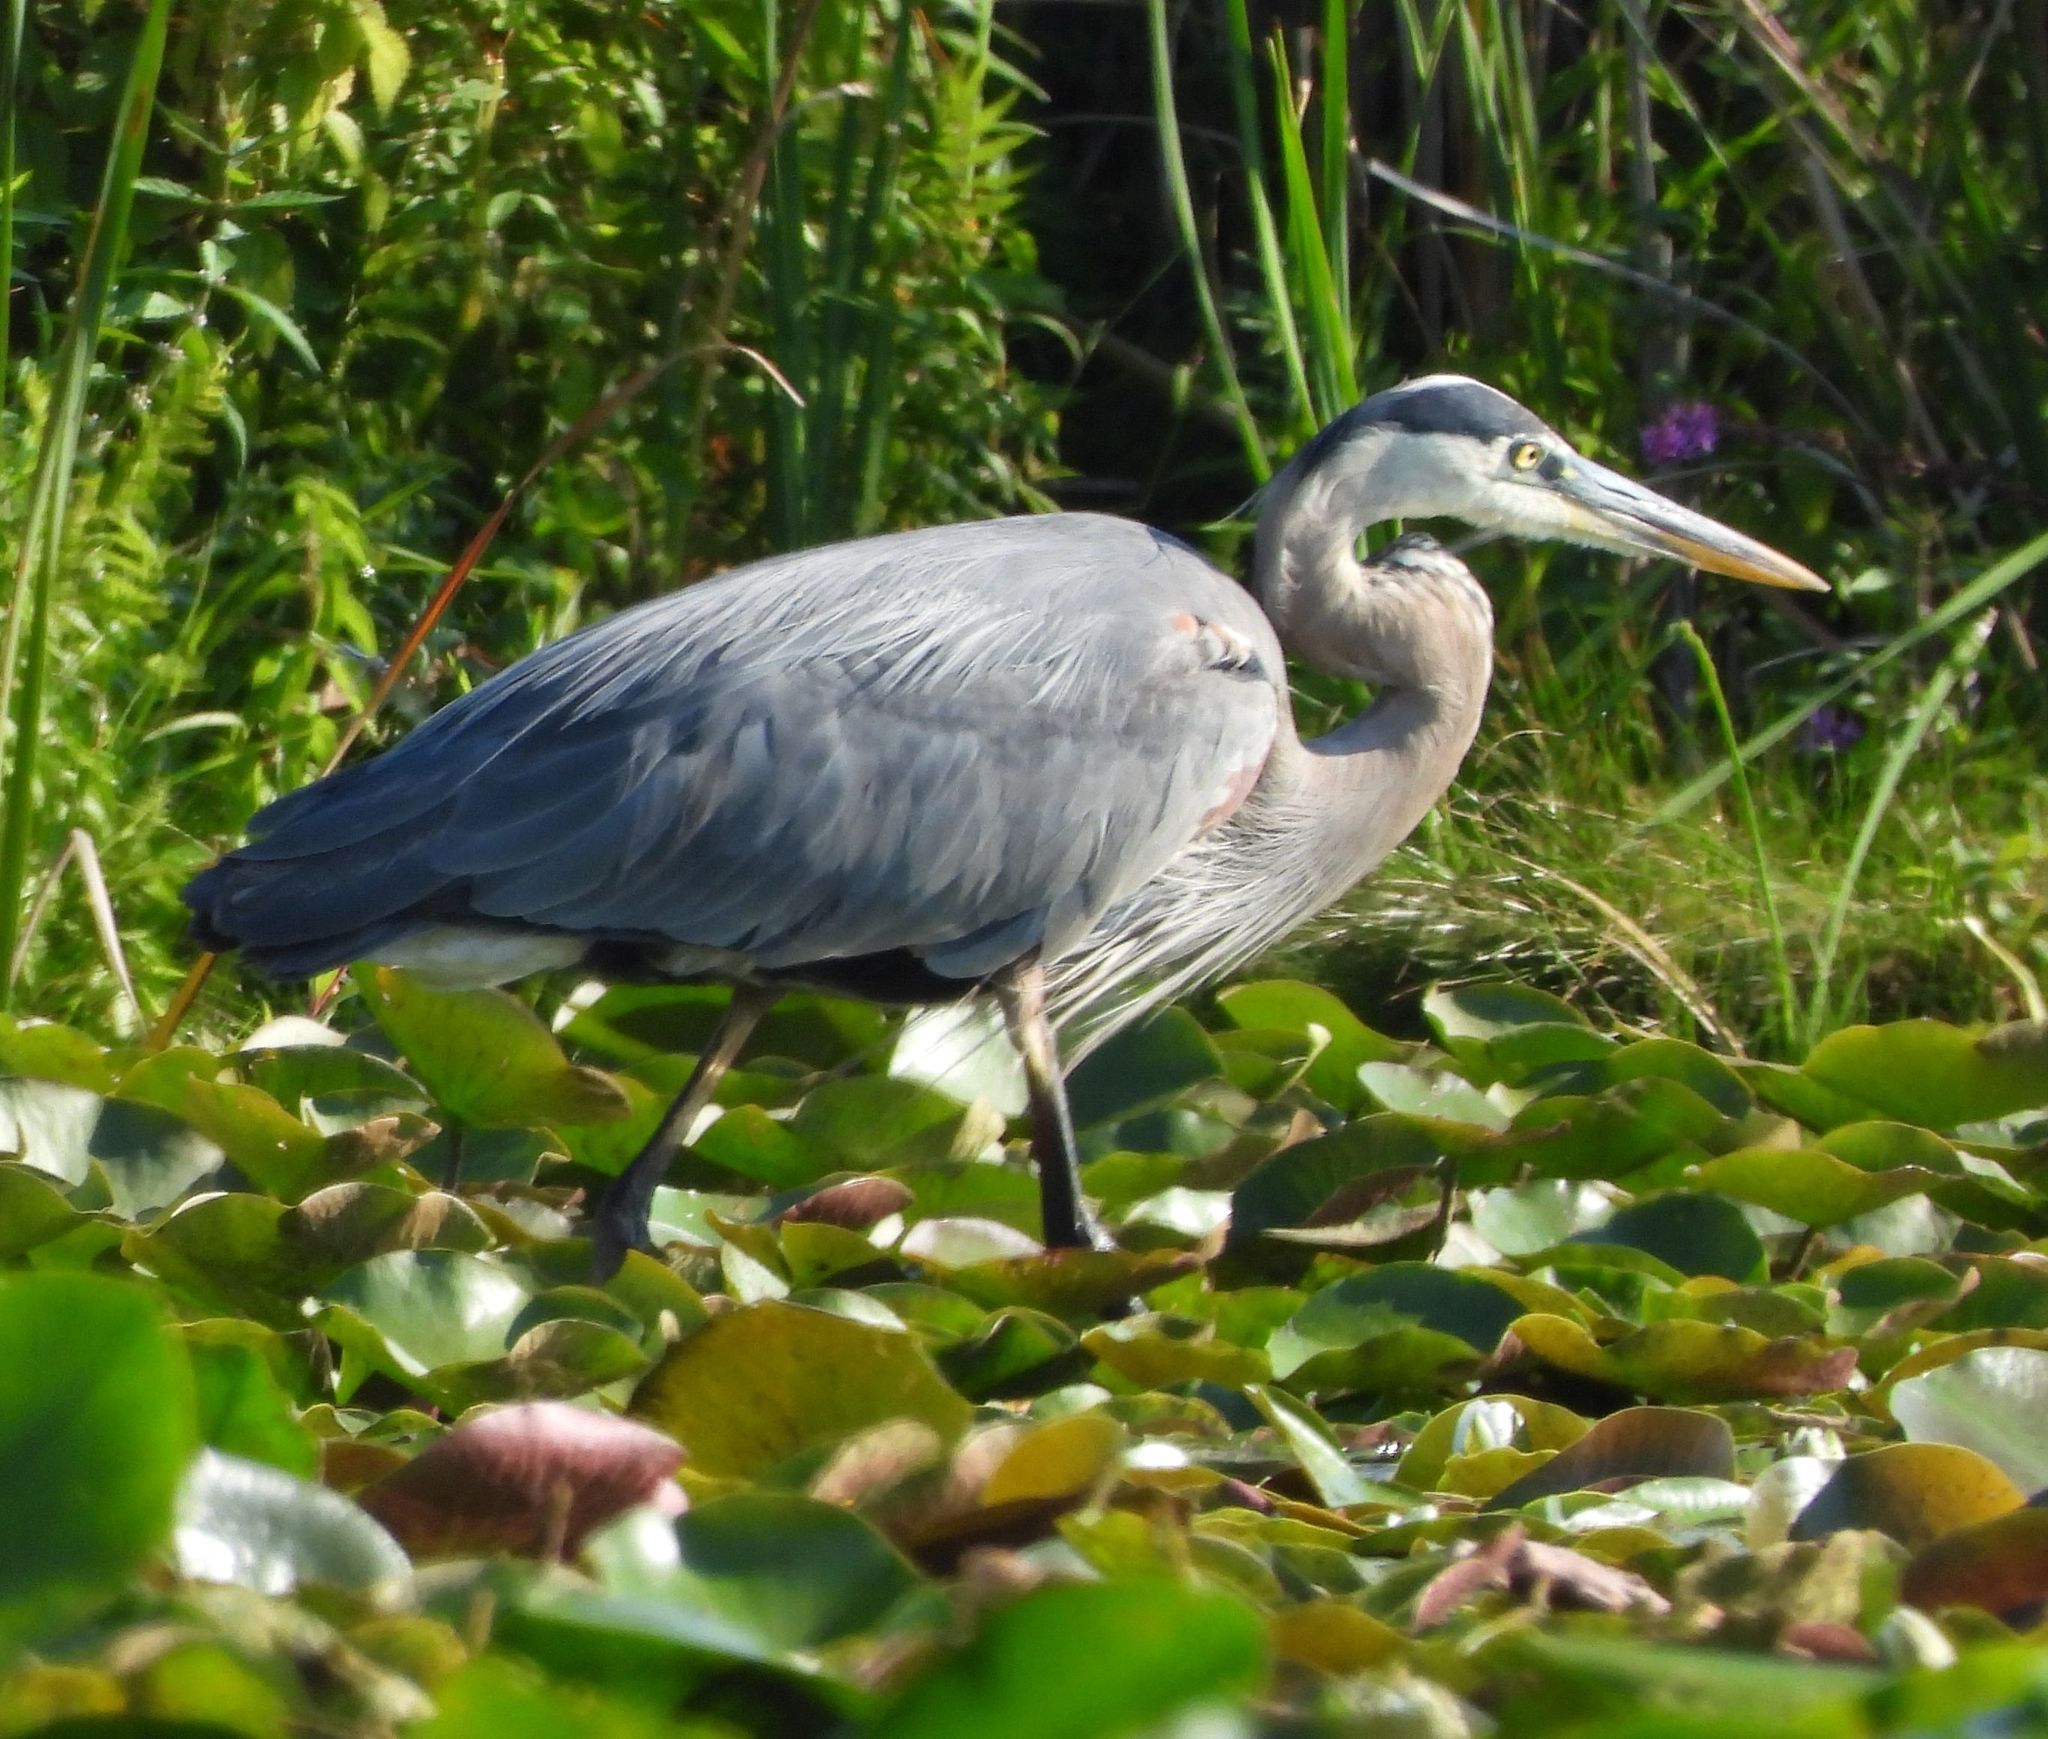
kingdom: Animalia
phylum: Chordata
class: Aves
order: Pelecaniformes
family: Ardeidae
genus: Ardea
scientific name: Ardea herodias
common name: Great blue heron
